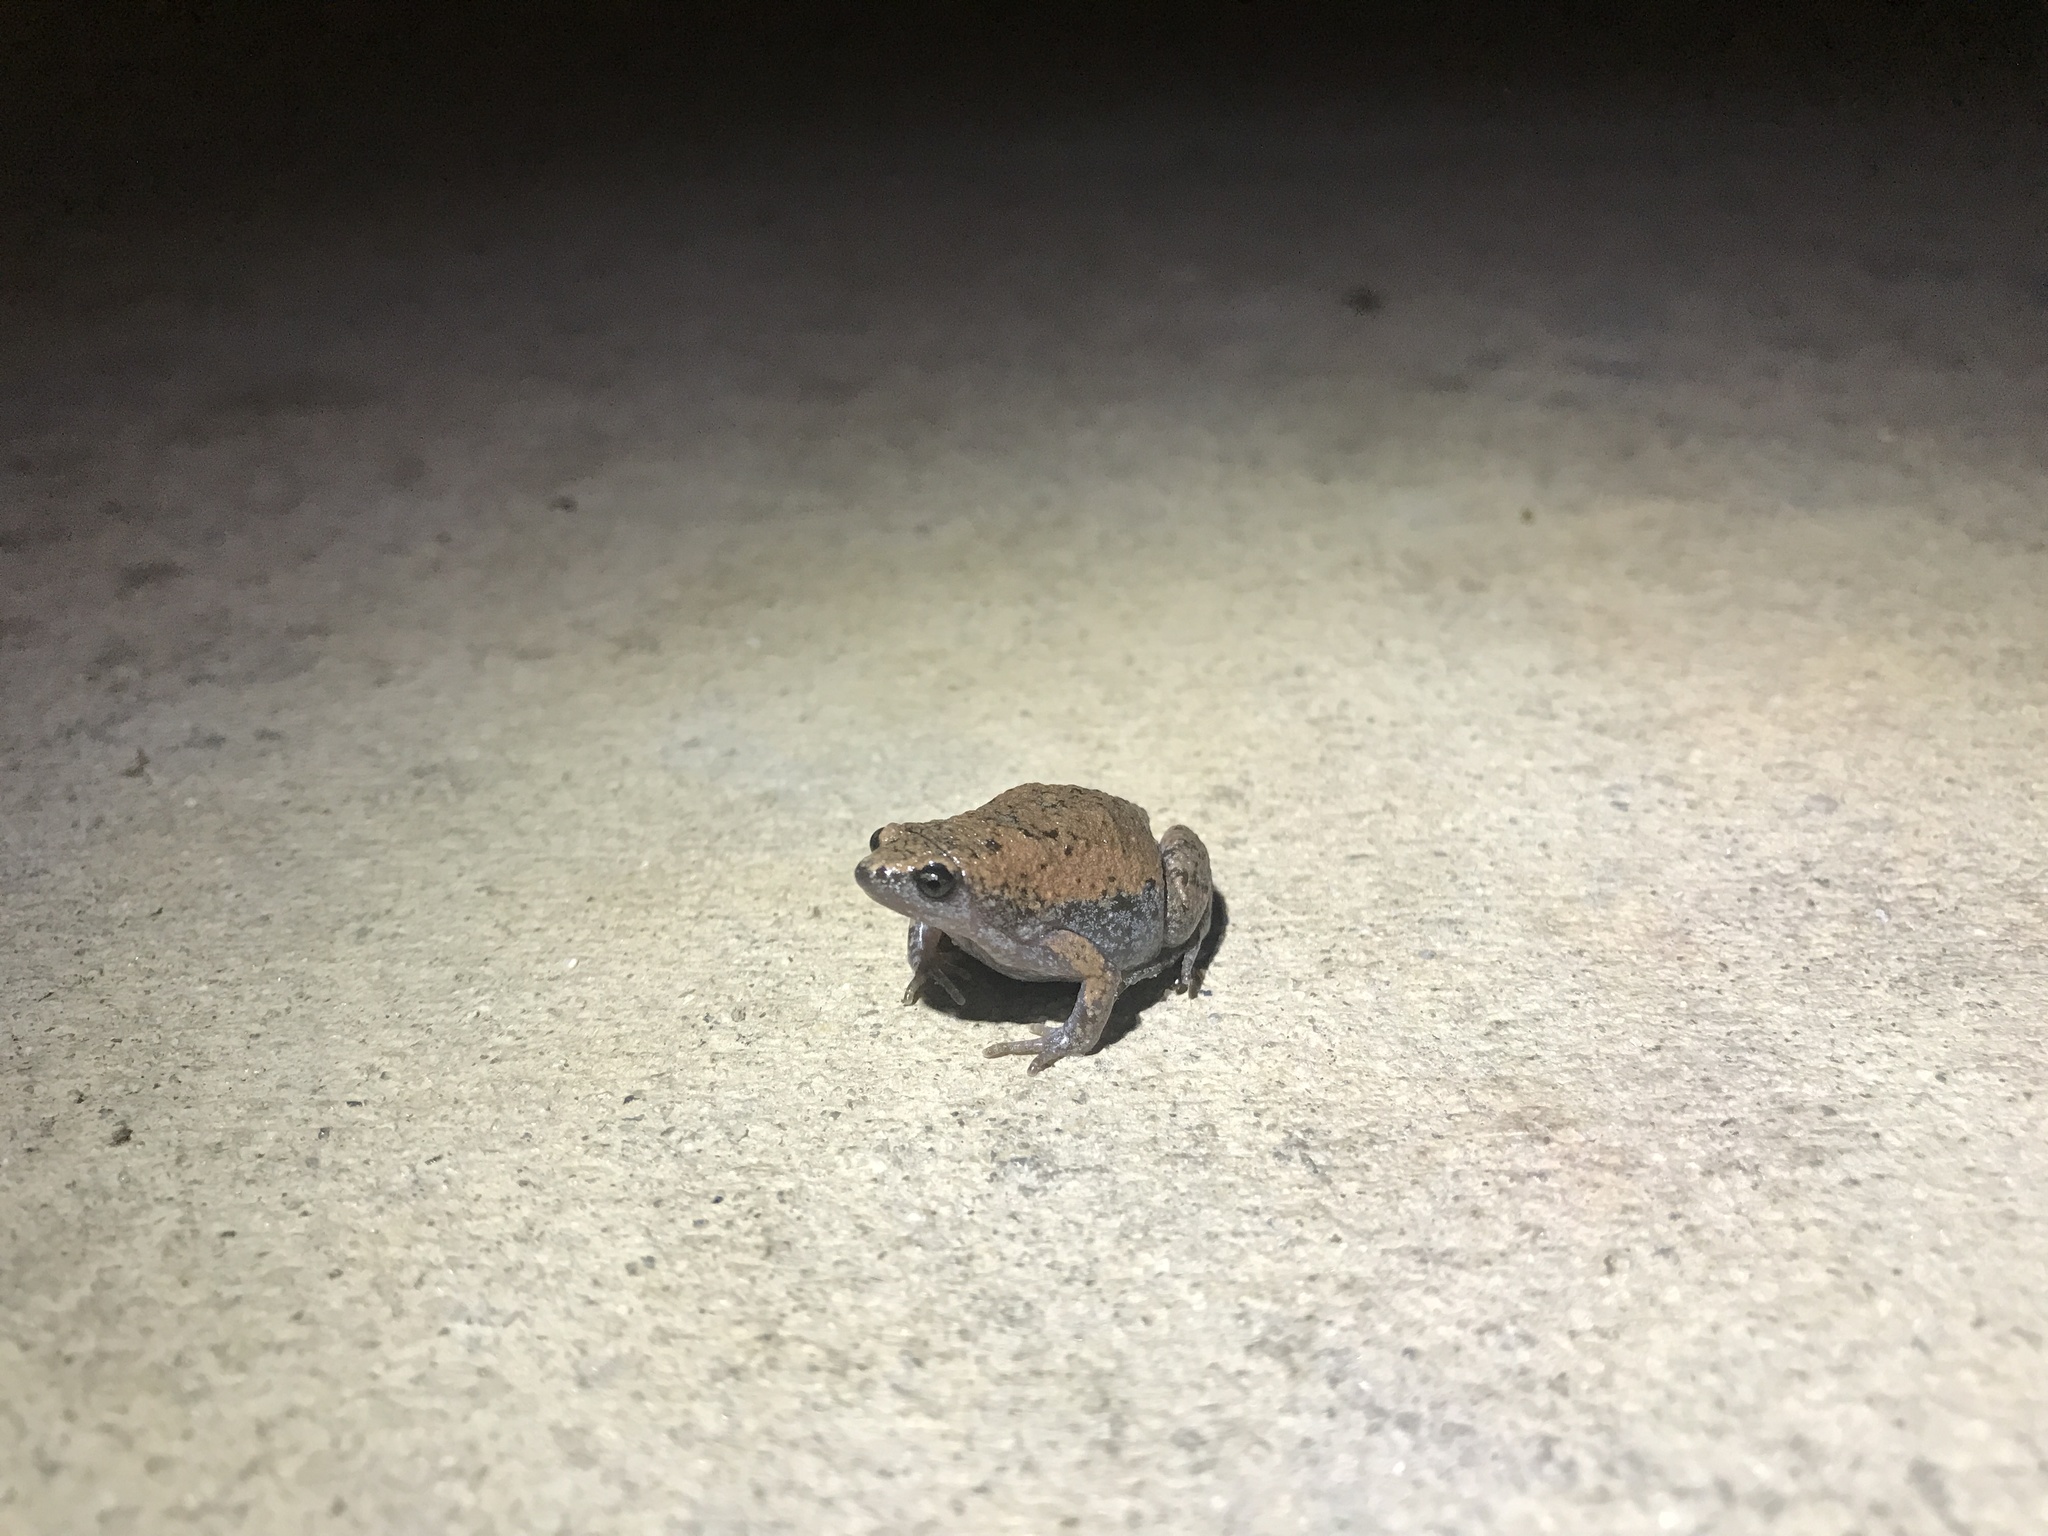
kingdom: Animalia
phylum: Chordata
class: Amphibia
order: Anura
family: Microhylidae
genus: Gastrophryne
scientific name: Gastrophryne carolinensis
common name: Eastern narrowmouth toad
